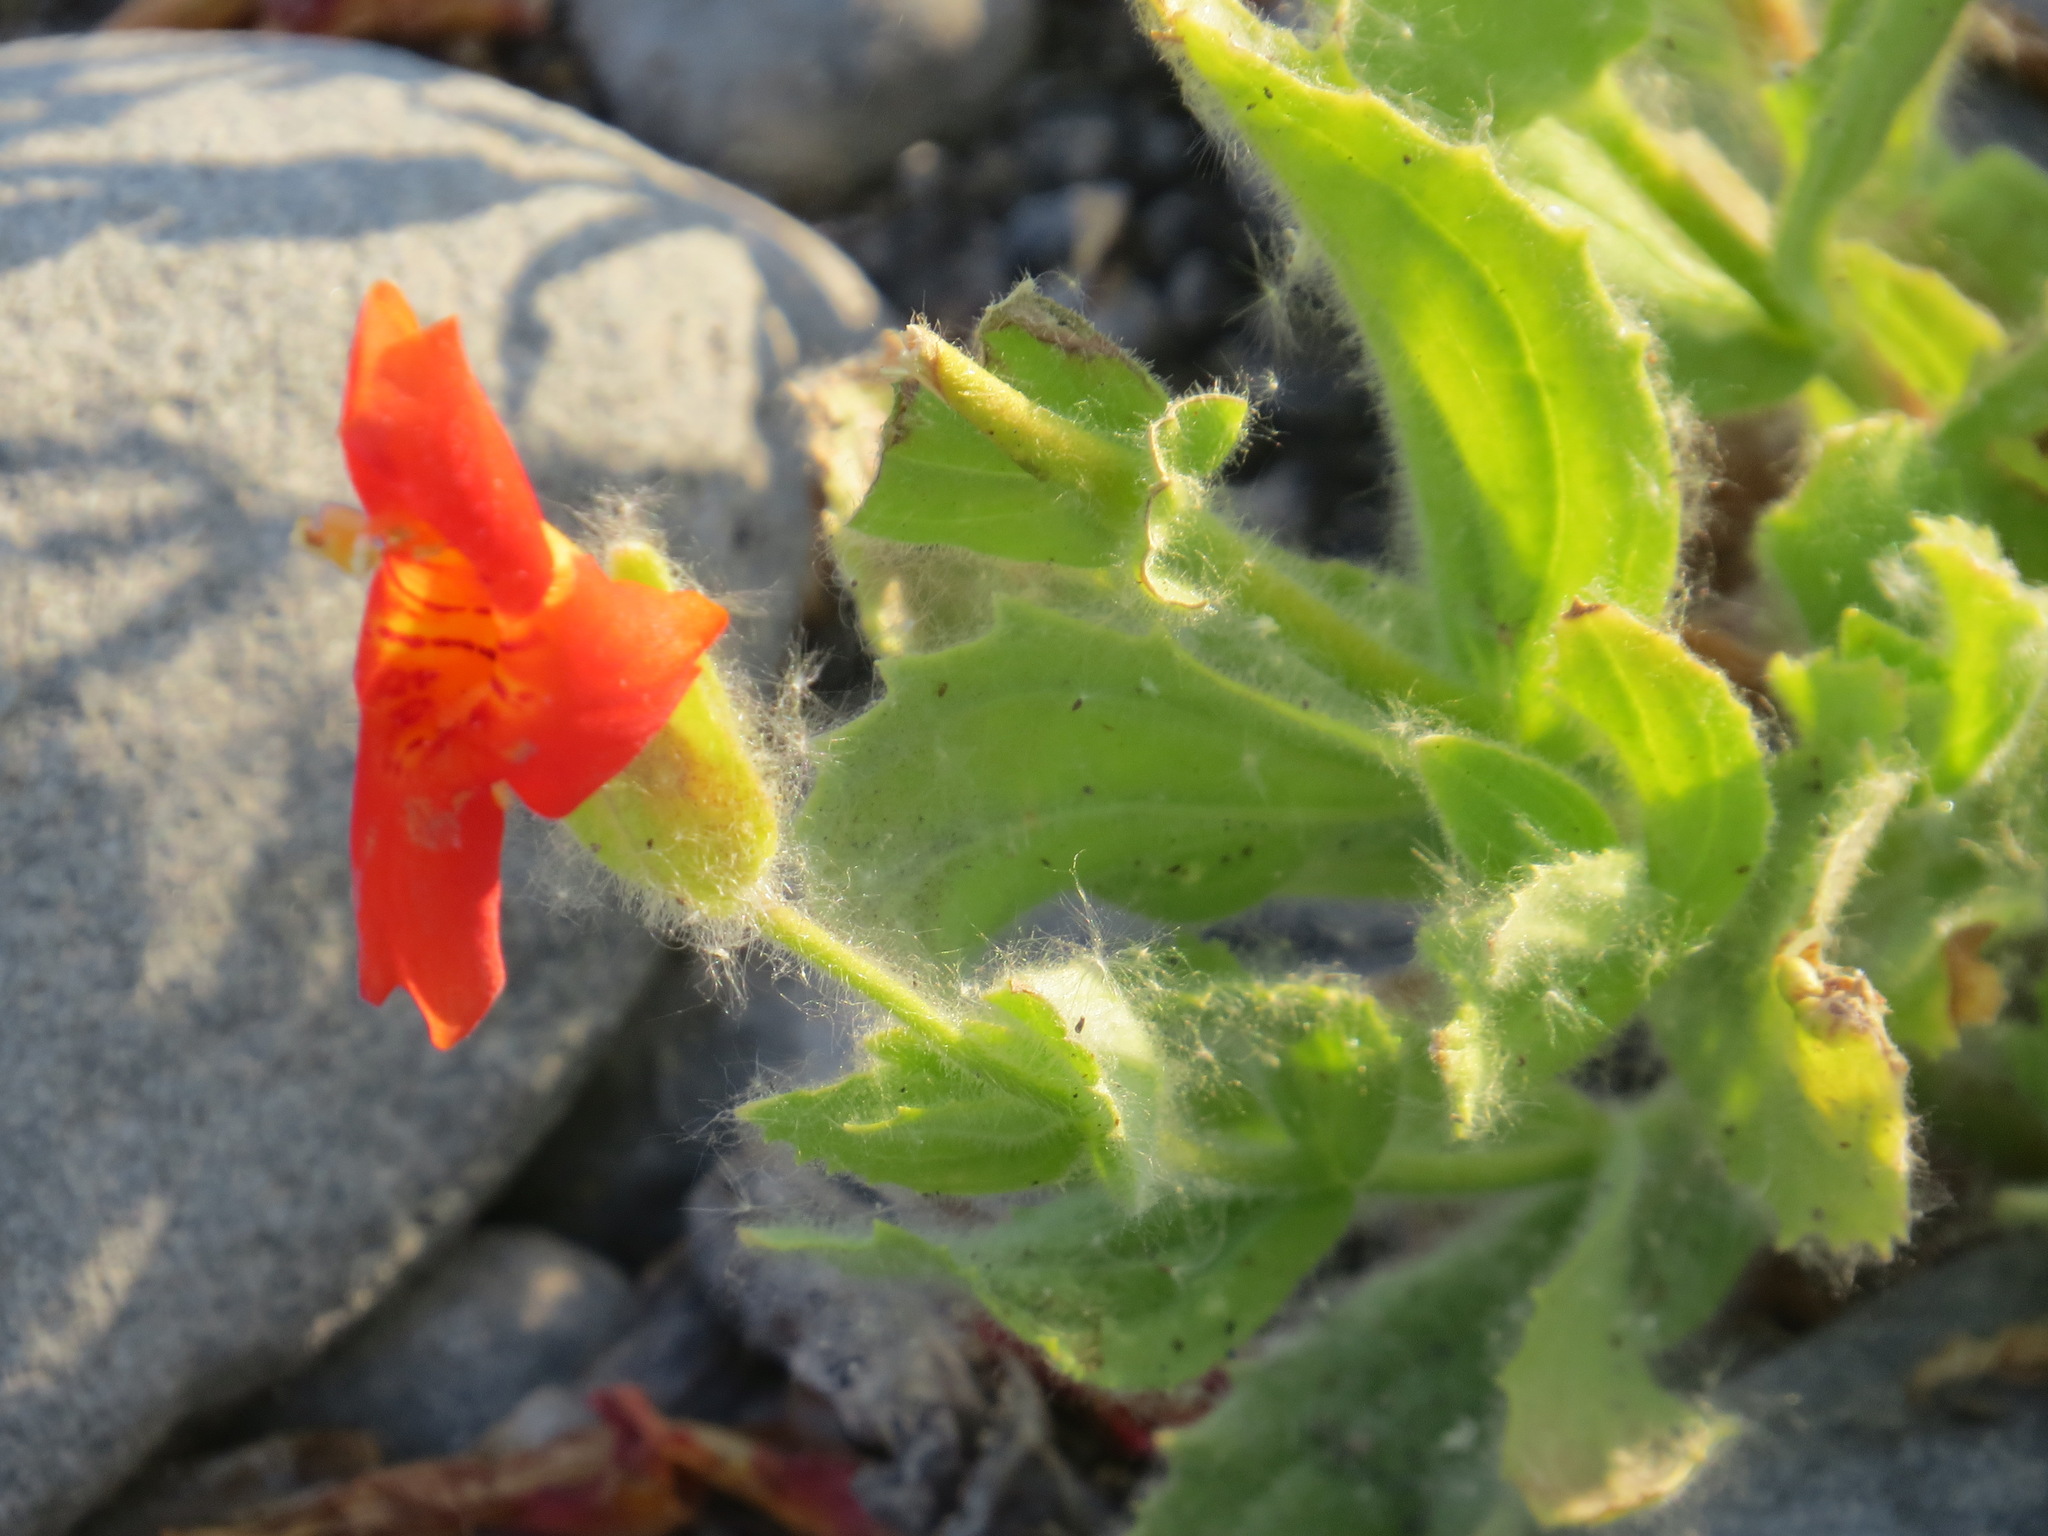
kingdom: Plantae
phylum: Tracheophyta
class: Magnoliopsida
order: Lamiales
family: Phrymaceae
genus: Erythranthe
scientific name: Erythranthe cardinalis
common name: Scarlet monkey-flower
